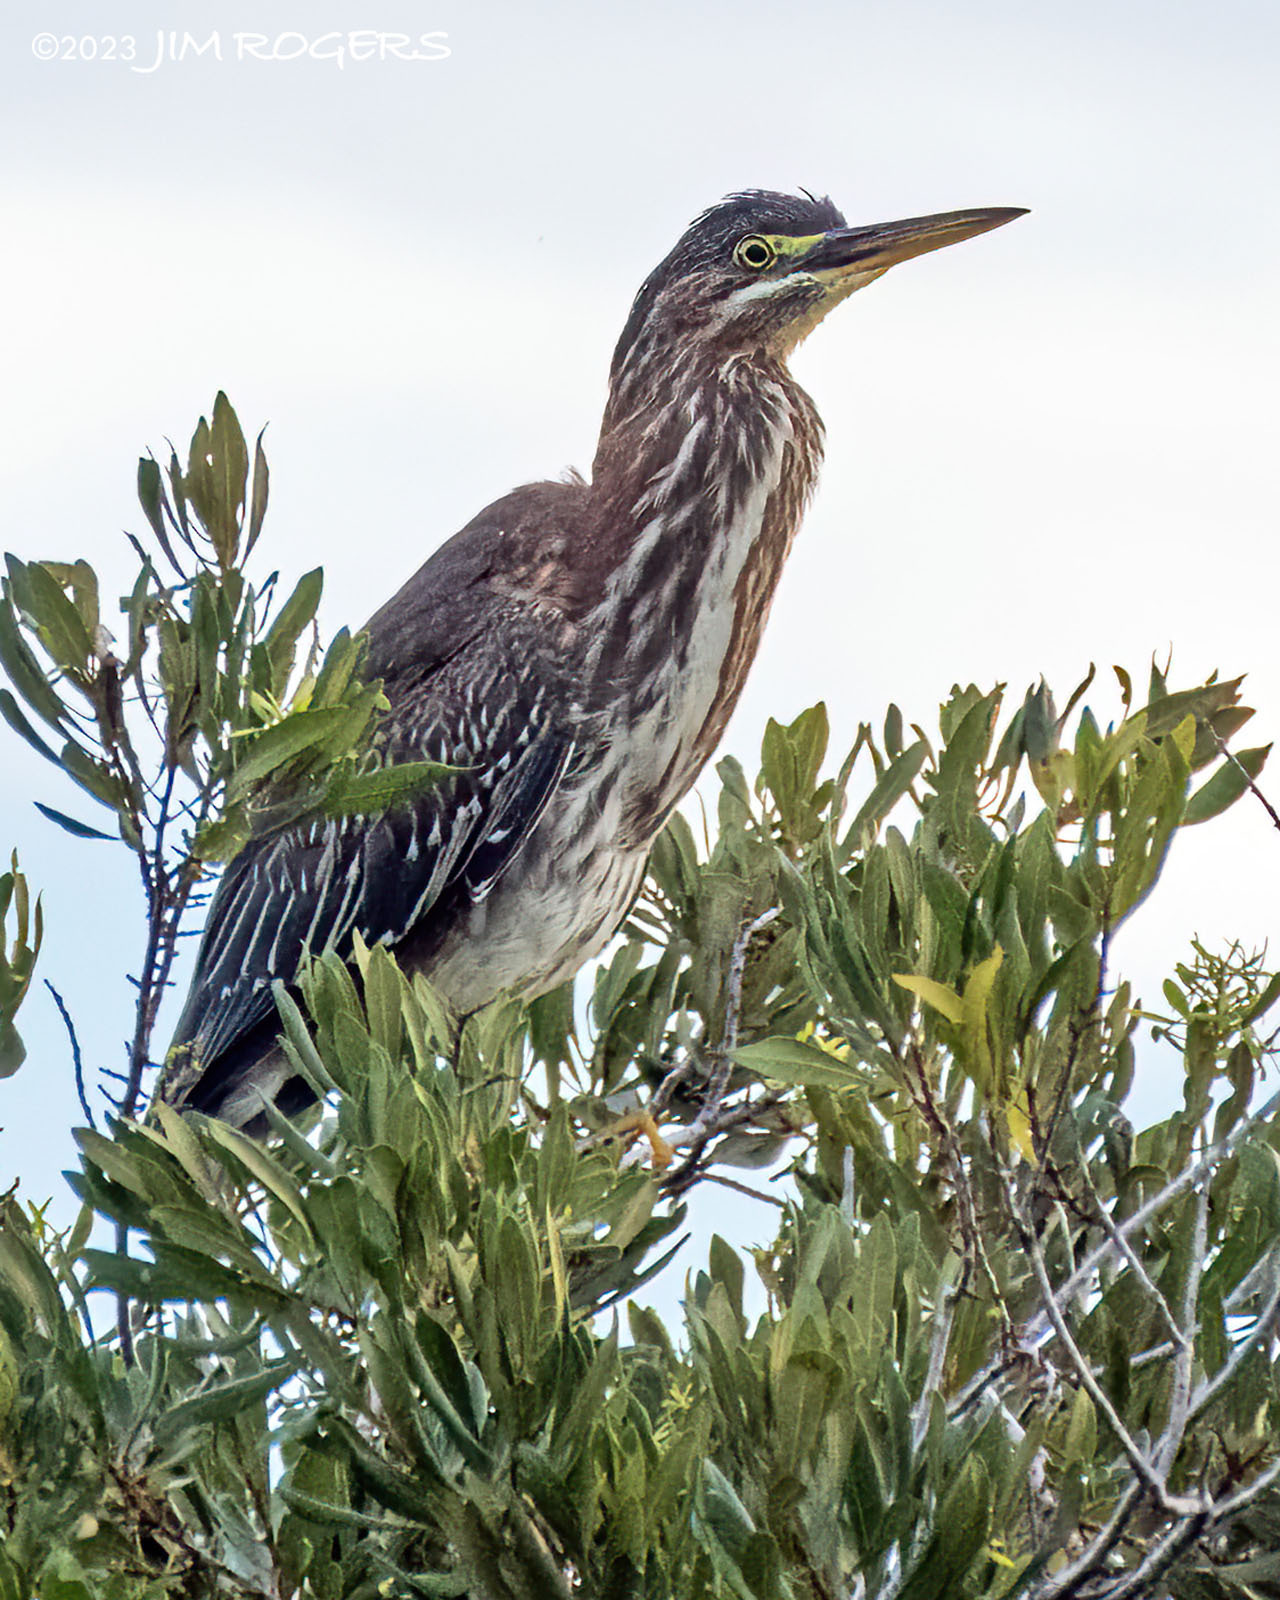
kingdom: Animalia
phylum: Chordata
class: Aves
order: Pelecaniformes
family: Ardeidae
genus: Butorides
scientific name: Butorides virescens
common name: Green heron
